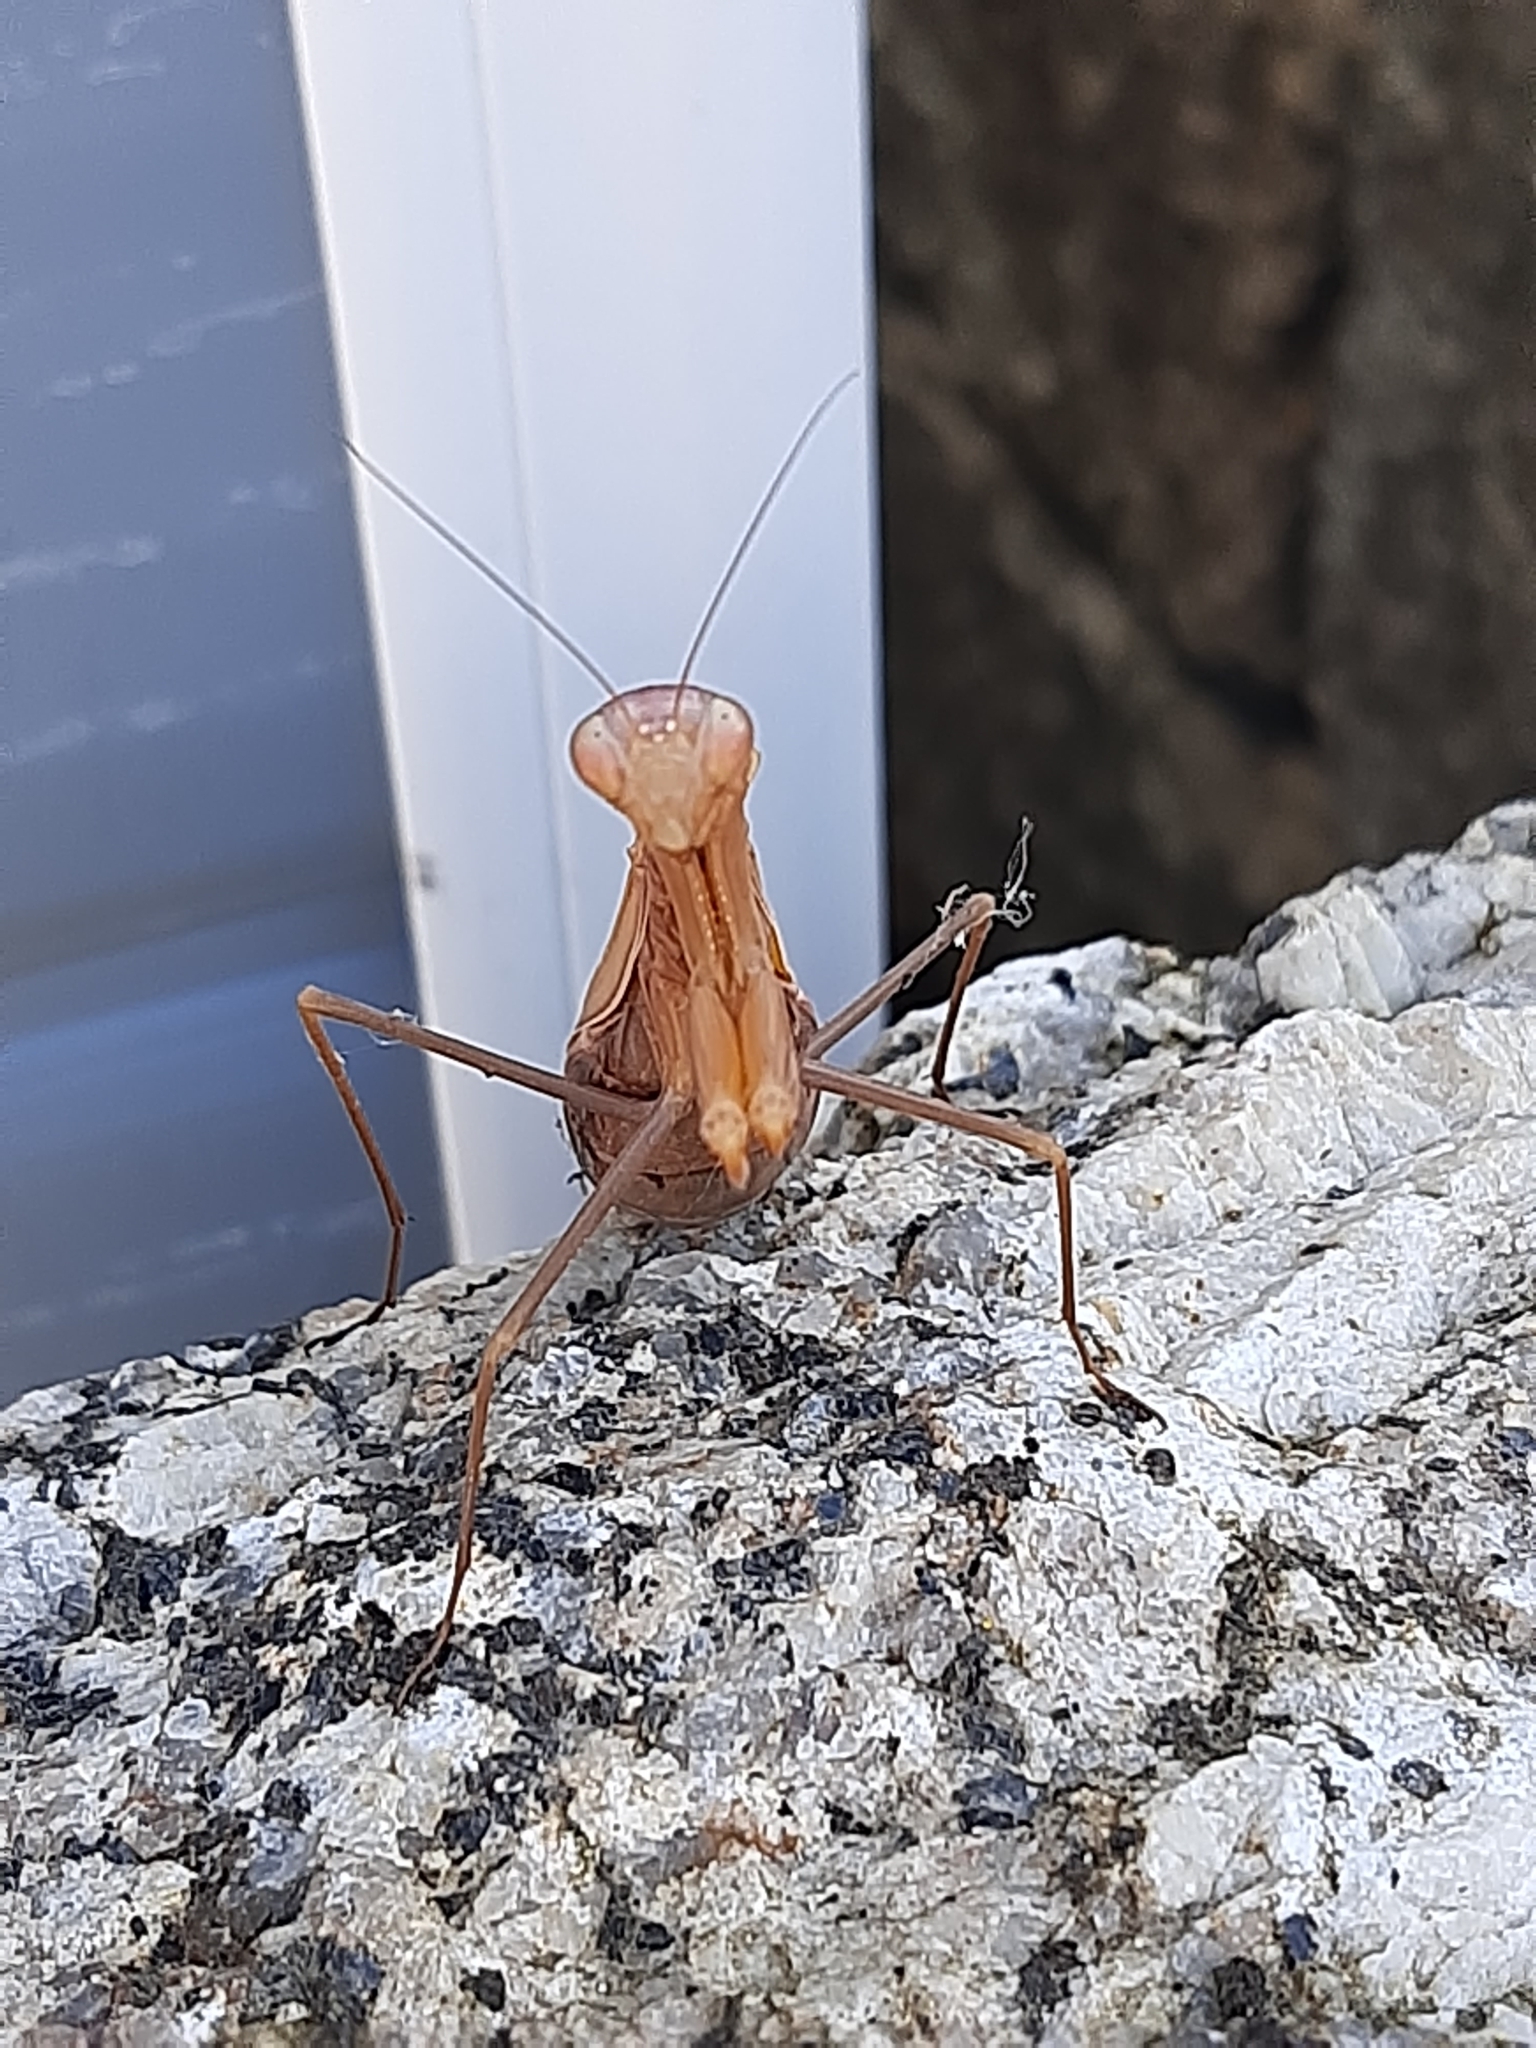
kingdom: Animalia
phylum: Arthropoda
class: Insecta
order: Mantodea
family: Mantidae
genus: Mantis
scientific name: Mantis religiosa
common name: Praying mantis
